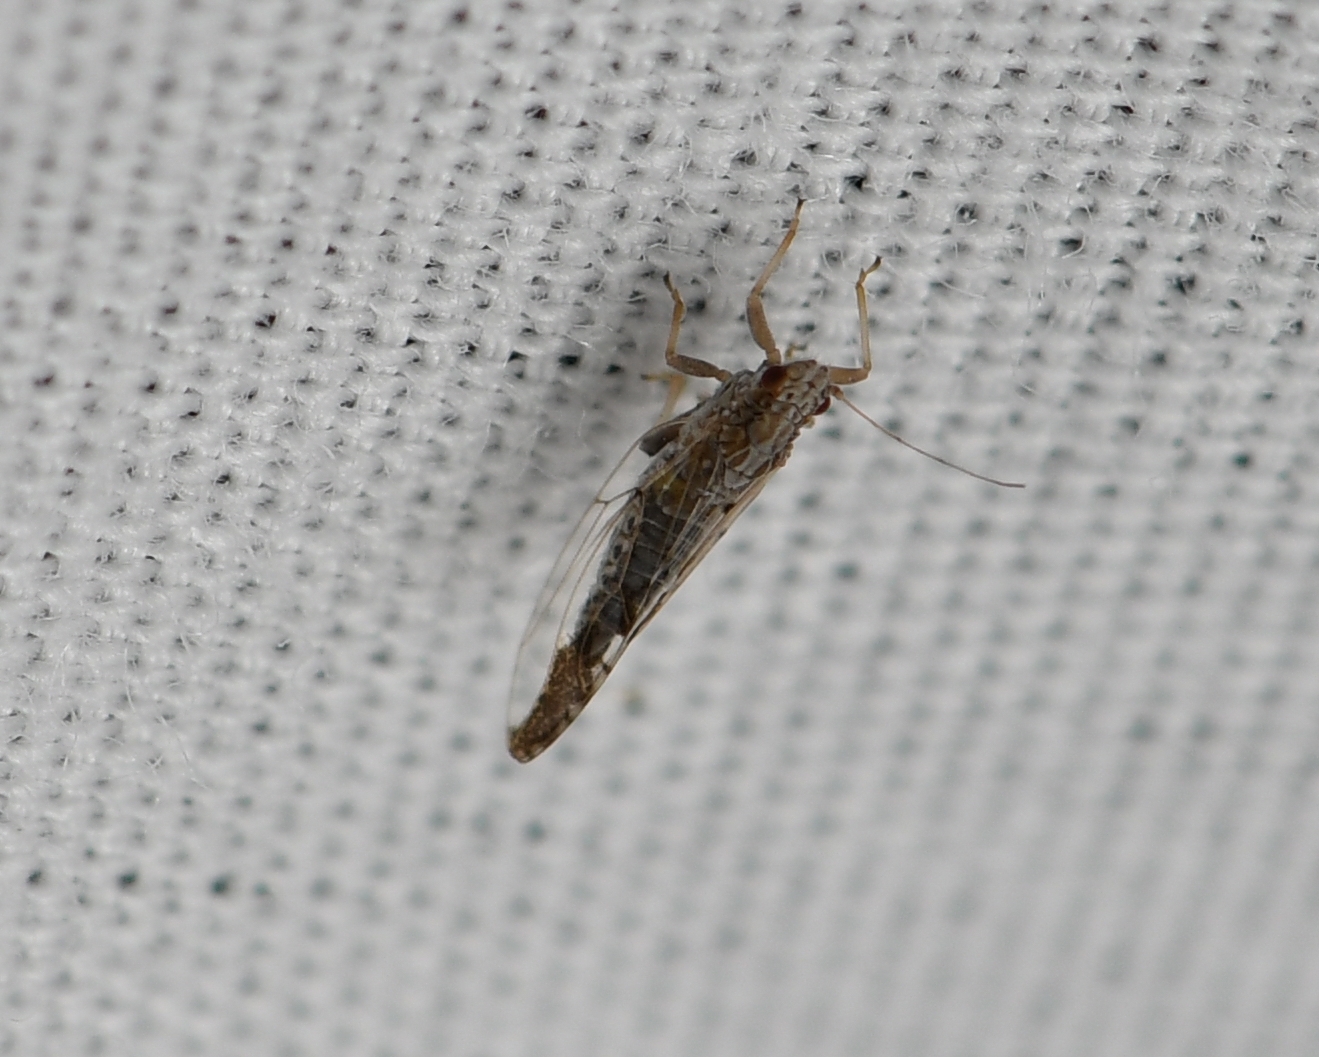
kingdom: Animalia
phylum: Arthropoda
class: Insecta
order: Hemiptera
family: Triozidae
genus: Leuronota
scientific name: Leuronota maculata
